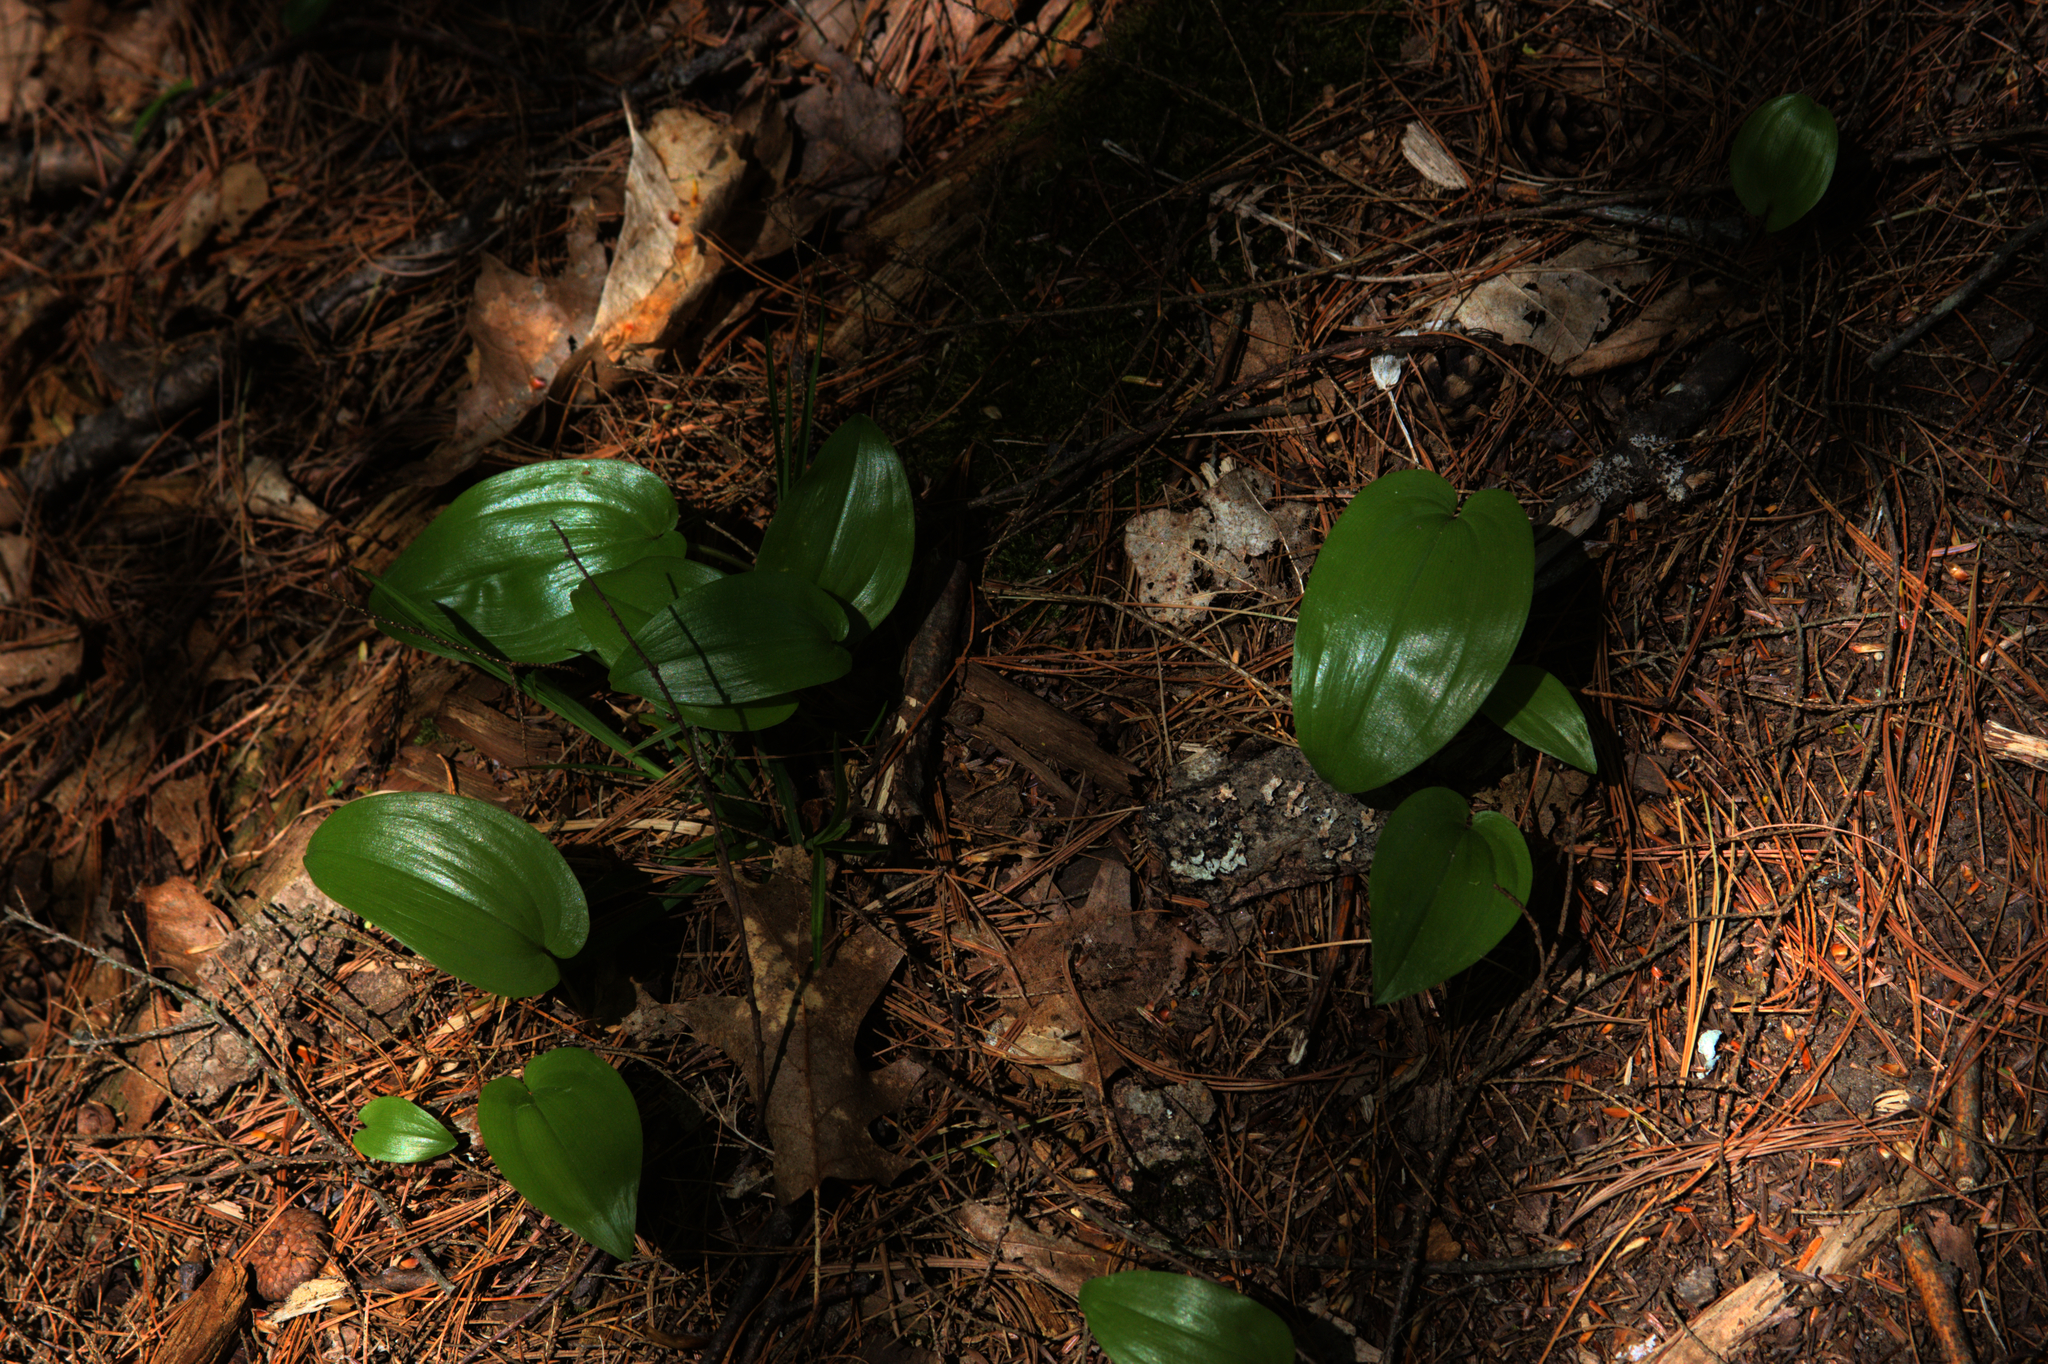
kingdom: Plantae
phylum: Tracheophyta
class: Liliopsida
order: Asparagales
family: Asparagaceae
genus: Maianthemum
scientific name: Maianthemum canadense
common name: False lily-of-the-valley
